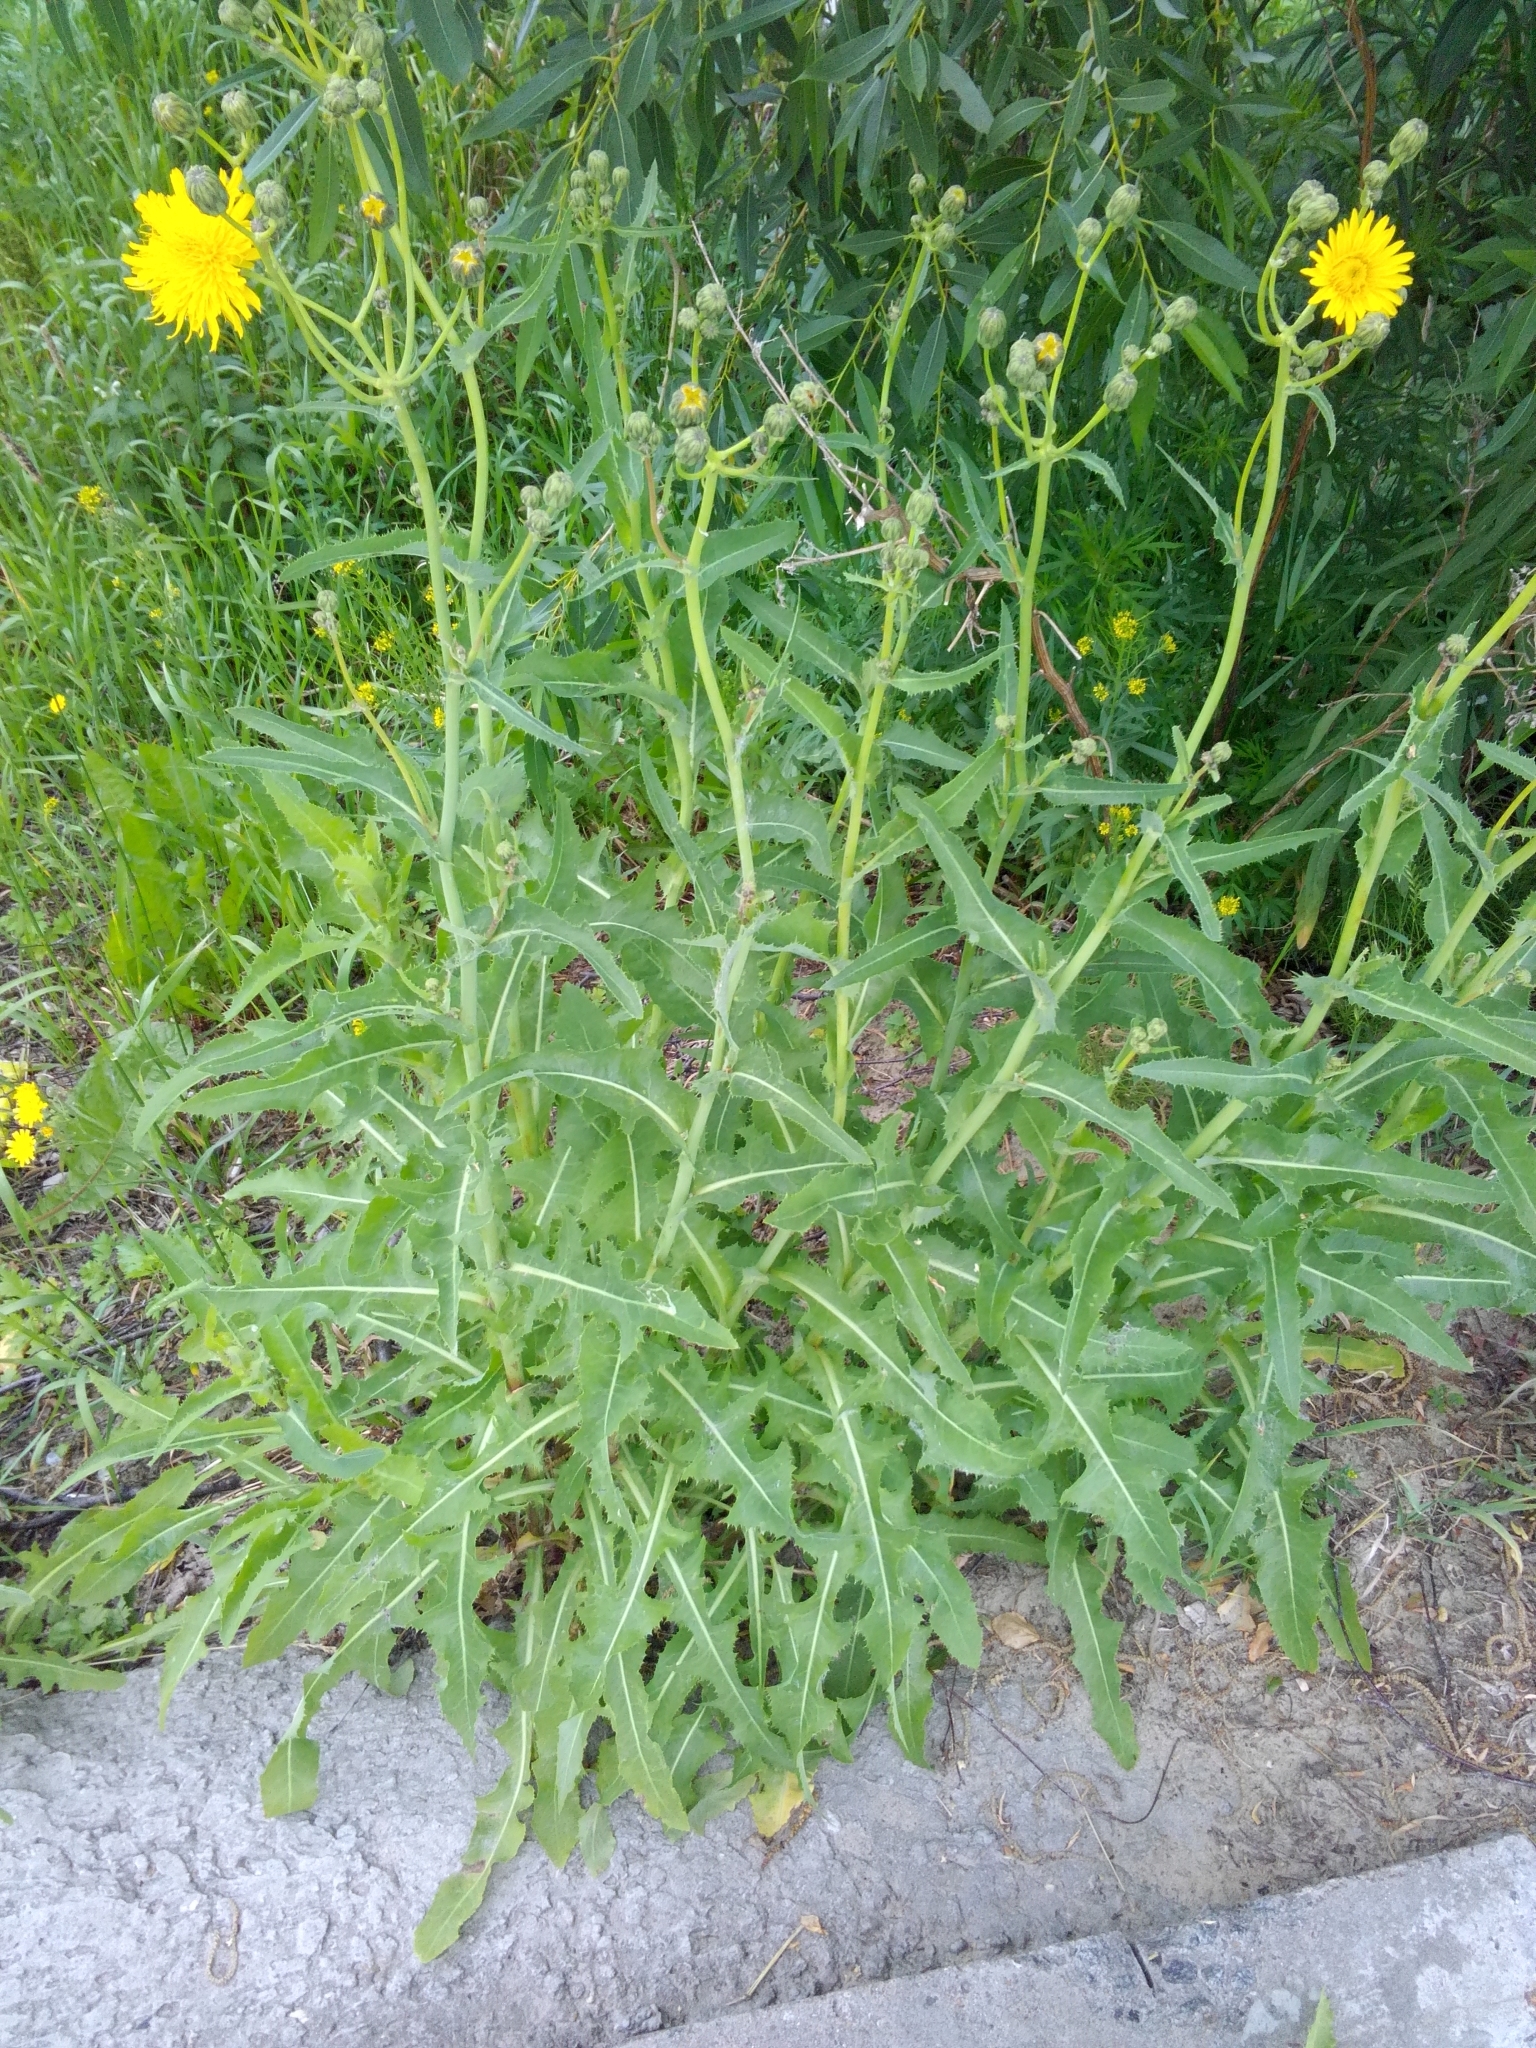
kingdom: Plantae
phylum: Tracheophyta
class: Magnoliopsida
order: Asterales
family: Asteraceae
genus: Sonchus
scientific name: Sonchus arvensis
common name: Perennial sow-thistle
